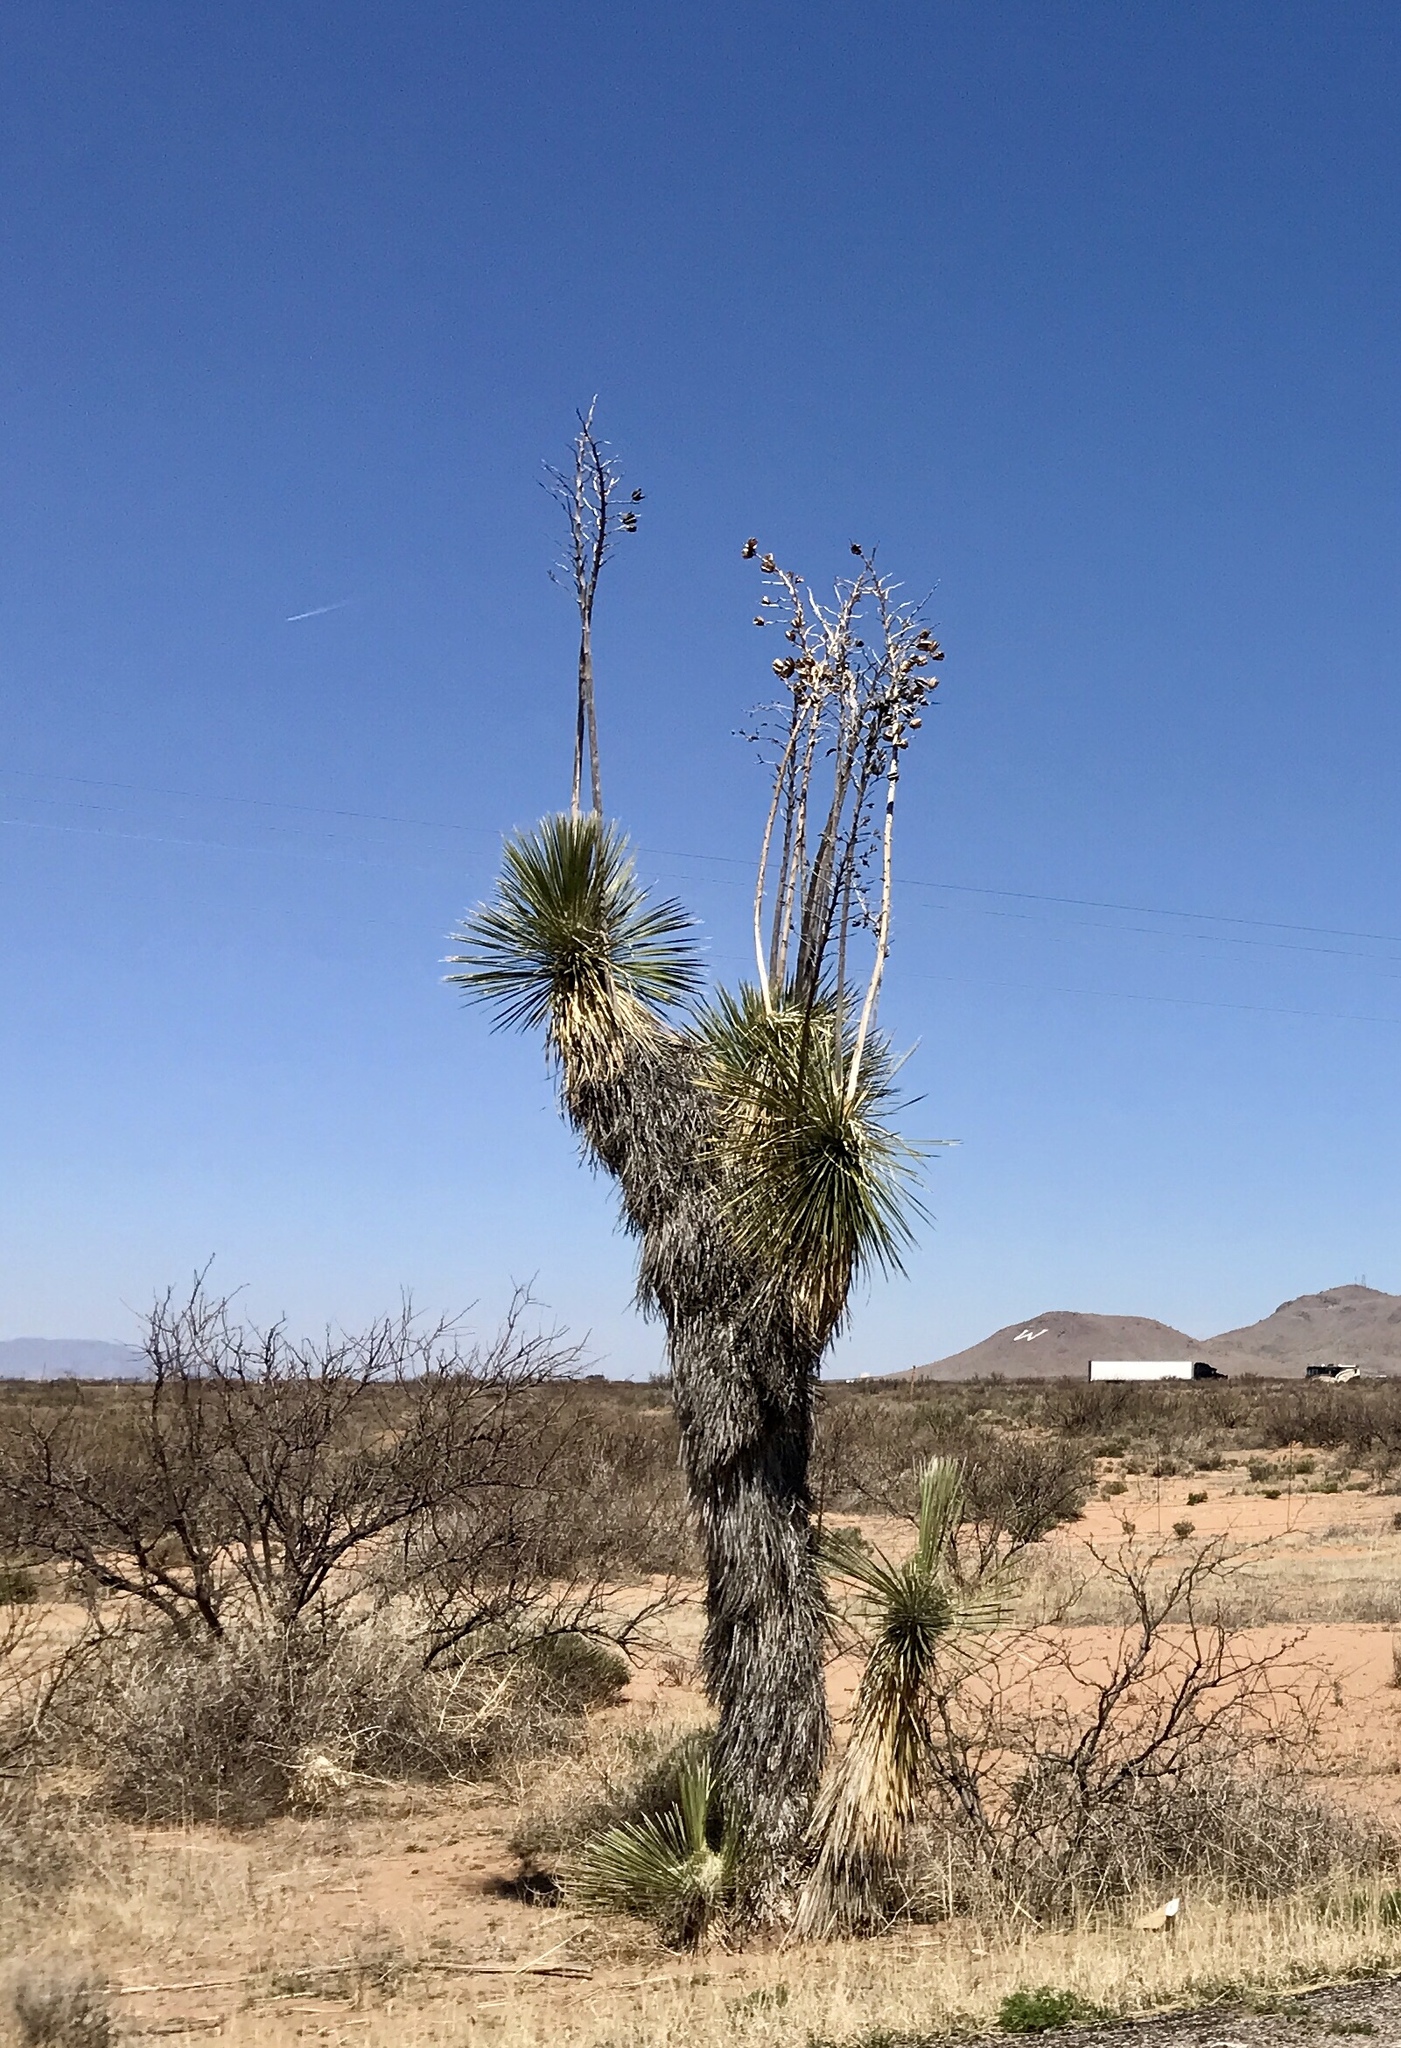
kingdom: Plantae
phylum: Tracheophyta
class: Liliopsida
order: Asparagales
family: Asparagaceae
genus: Yucca
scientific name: Yucca elata
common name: Palmella
